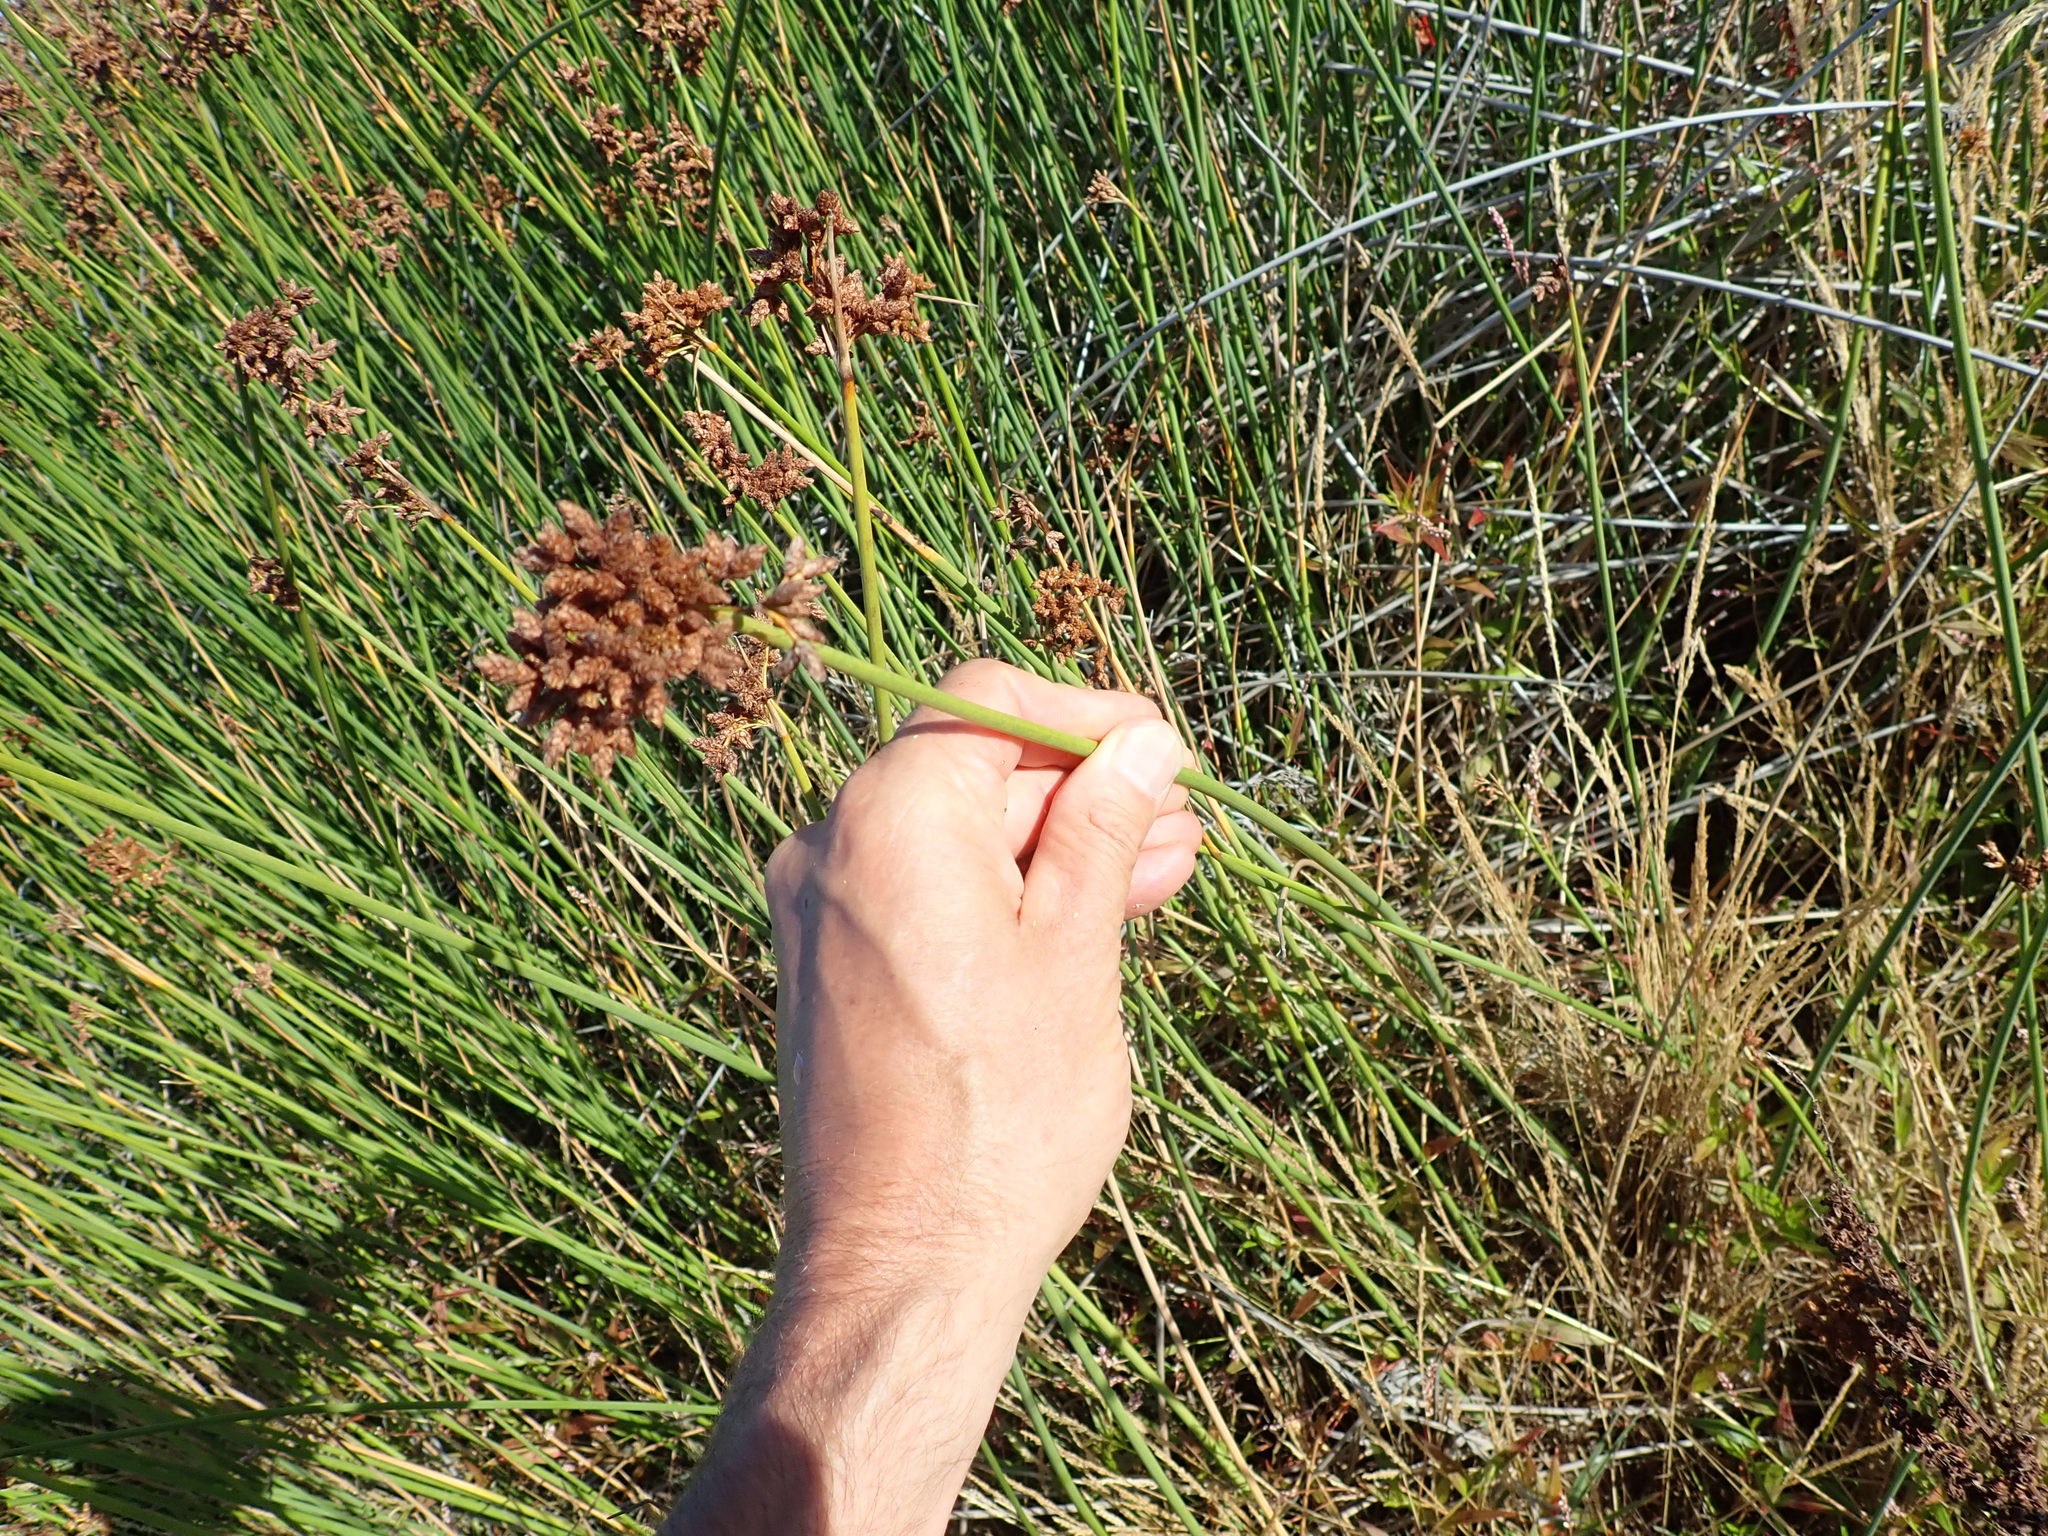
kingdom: Plantae
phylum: Tracheophyta
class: Liliopsida
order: Poales
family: Cyperaceae
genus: Schoenoplectus
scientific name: Schoenoplectus tabernaemontani
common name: Grey club-rush
